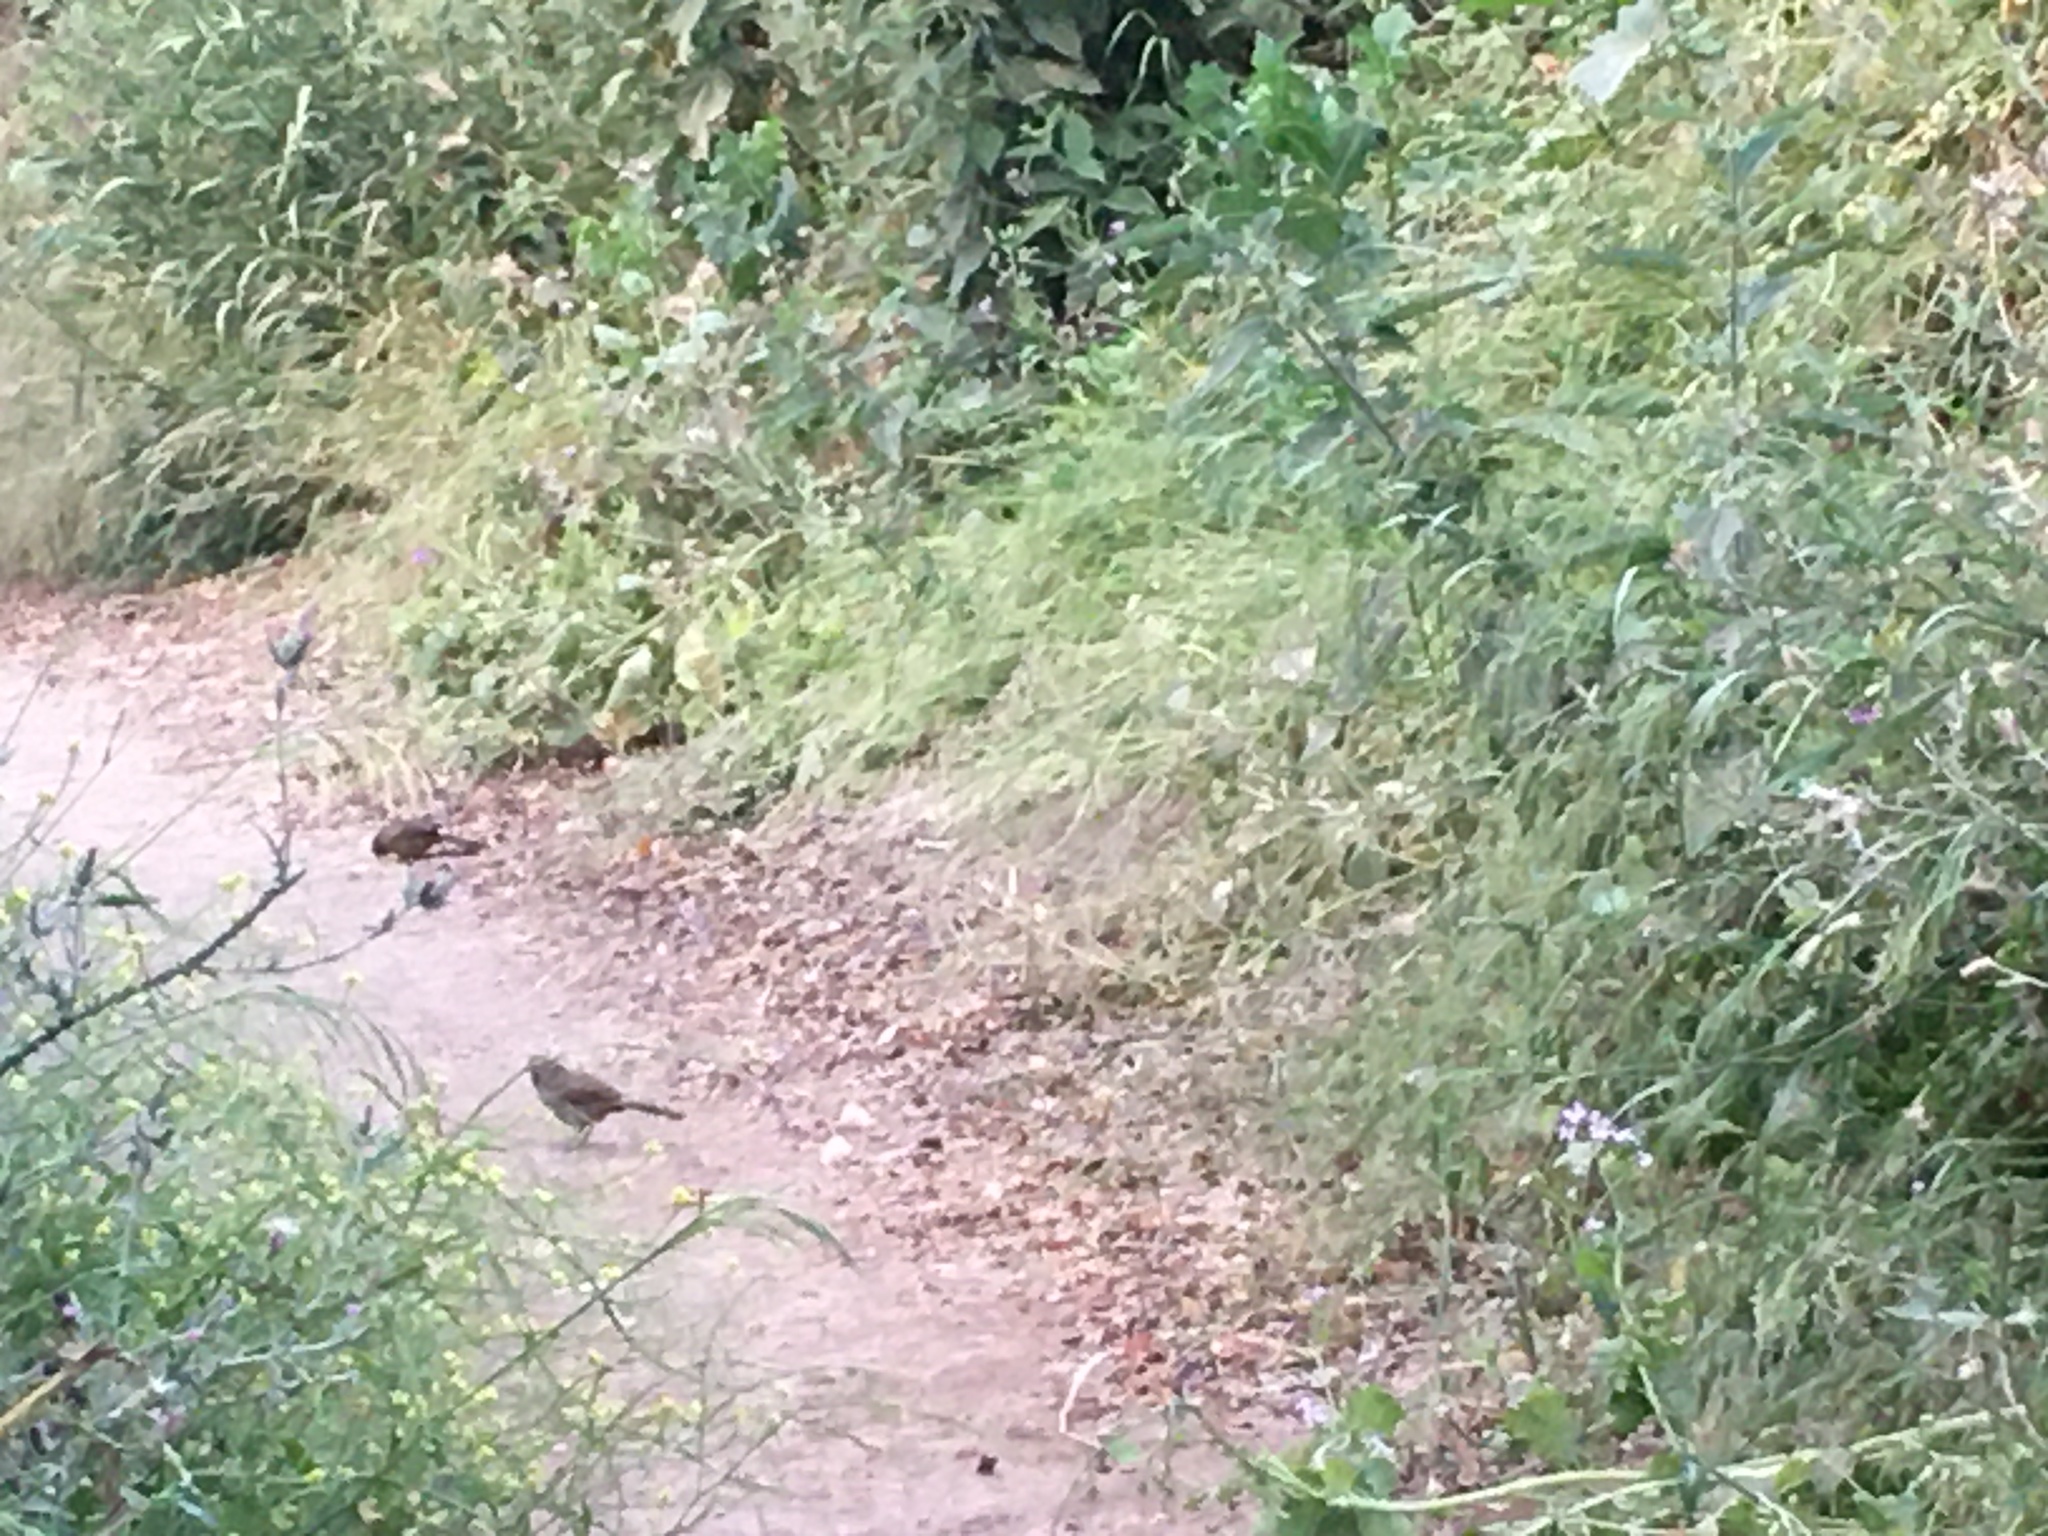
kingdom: Animalia
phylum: Chordata
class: Aves
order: Passeriformes
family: Passerellidae
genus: Melozone
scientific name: Melozone crissalis
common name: California towhee
